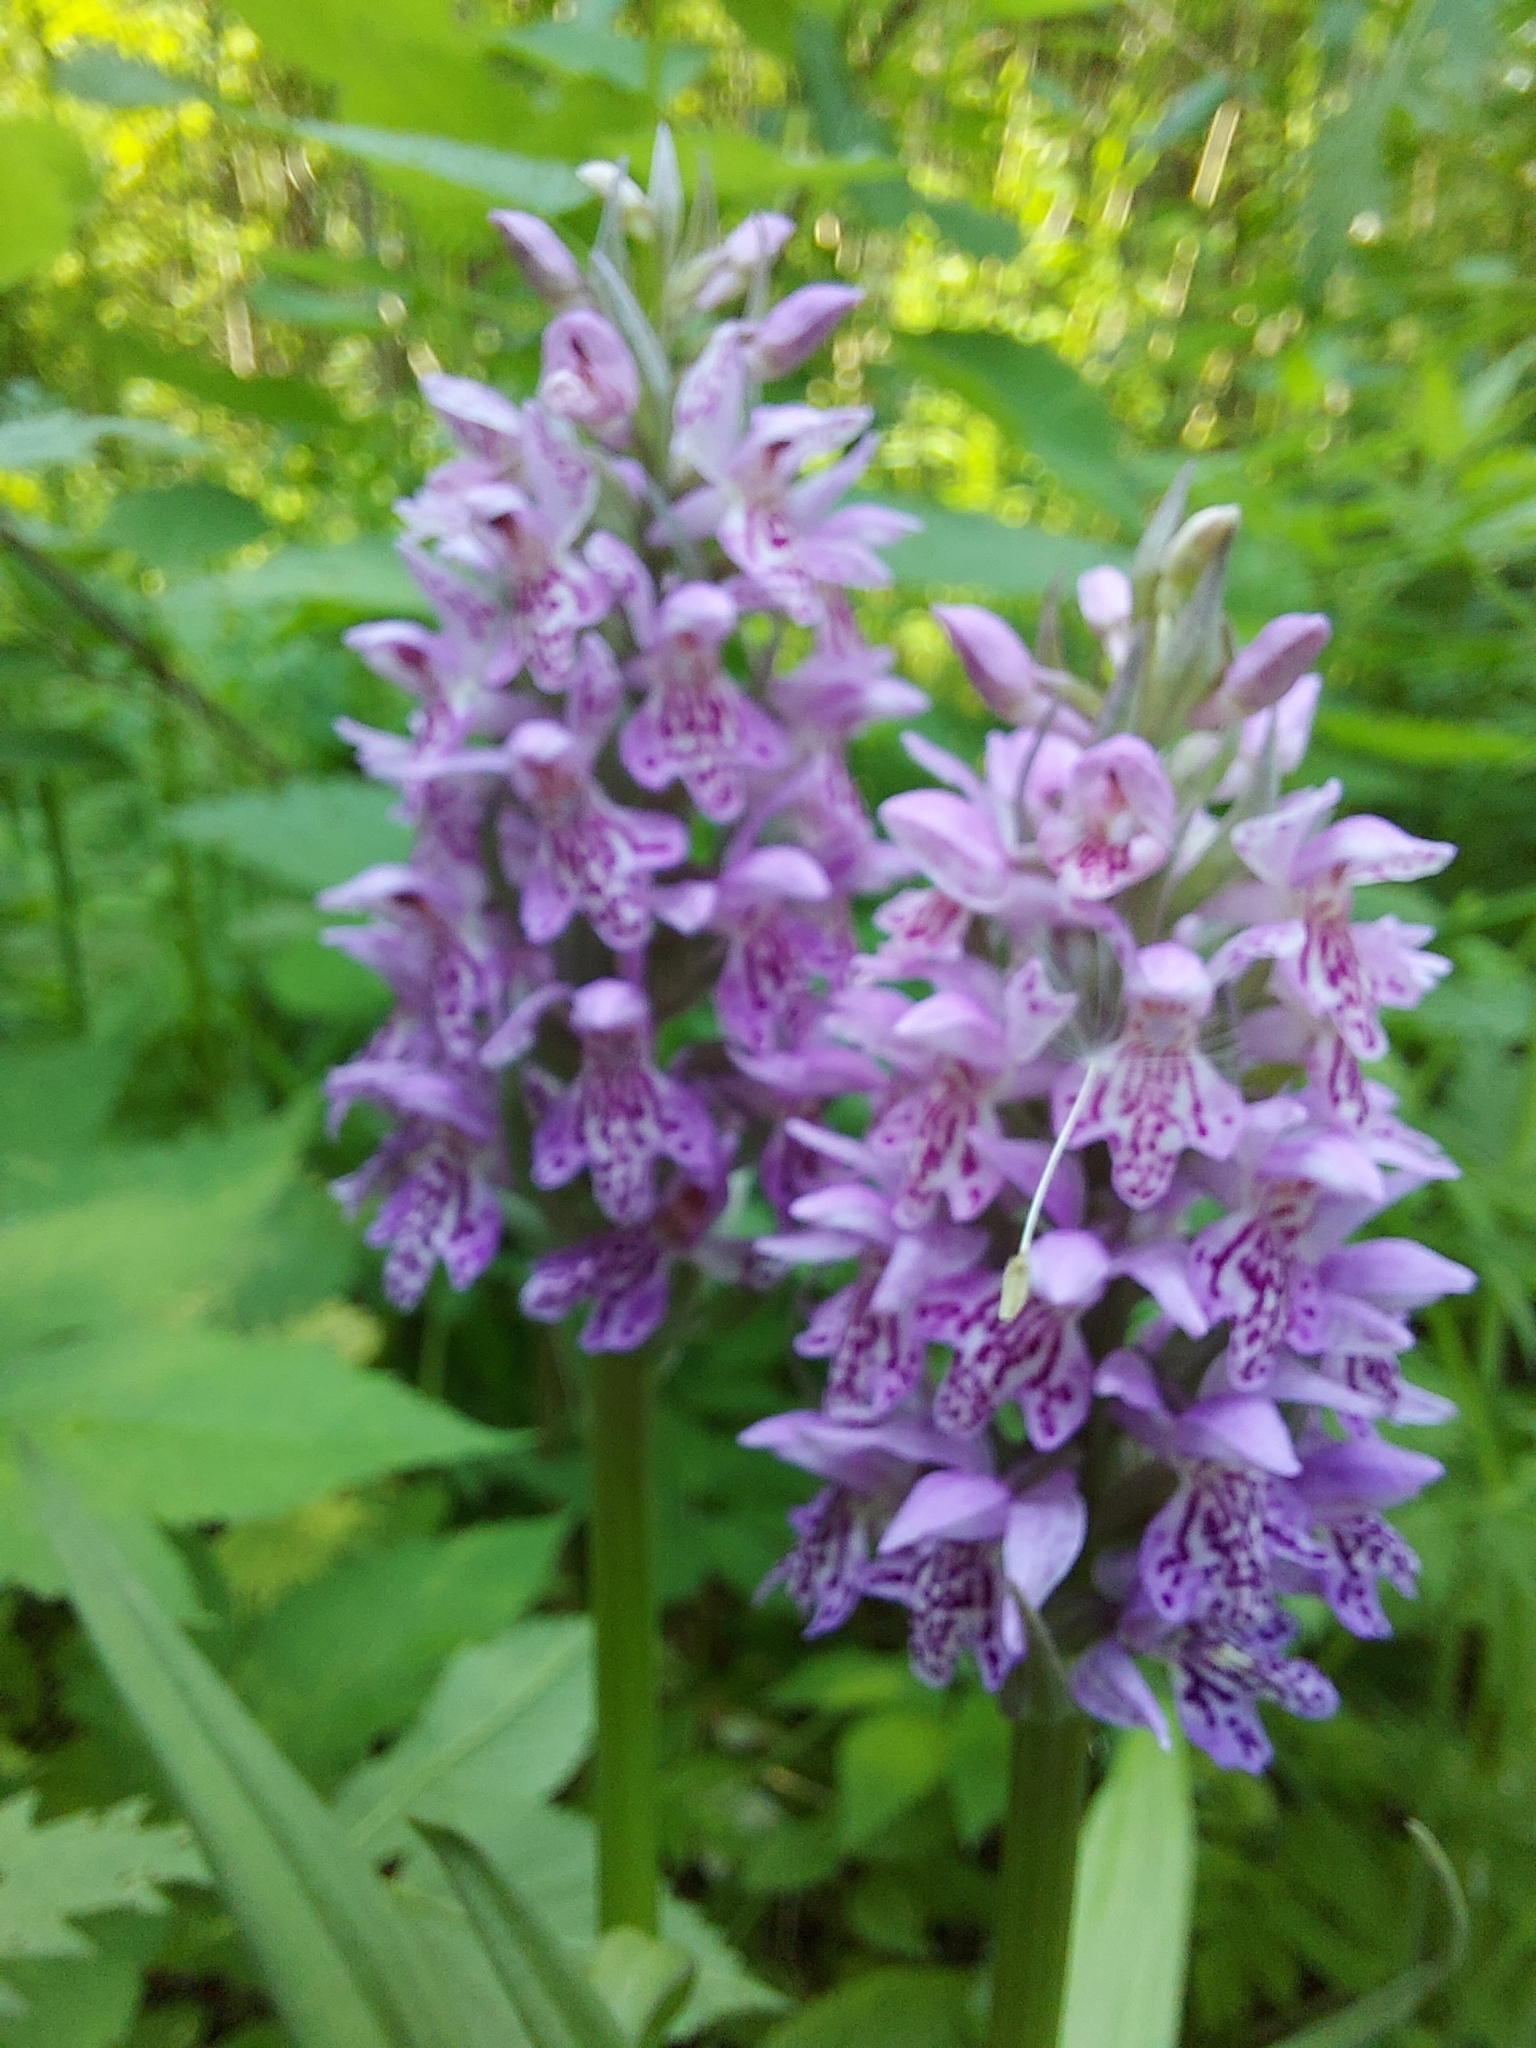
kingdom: Plantae
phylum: Tracheophyta
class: Liliopsida
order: Asparagales
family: Orchidaceae
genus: Dactylorhiza
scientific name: Dactylorhiza sibirica
